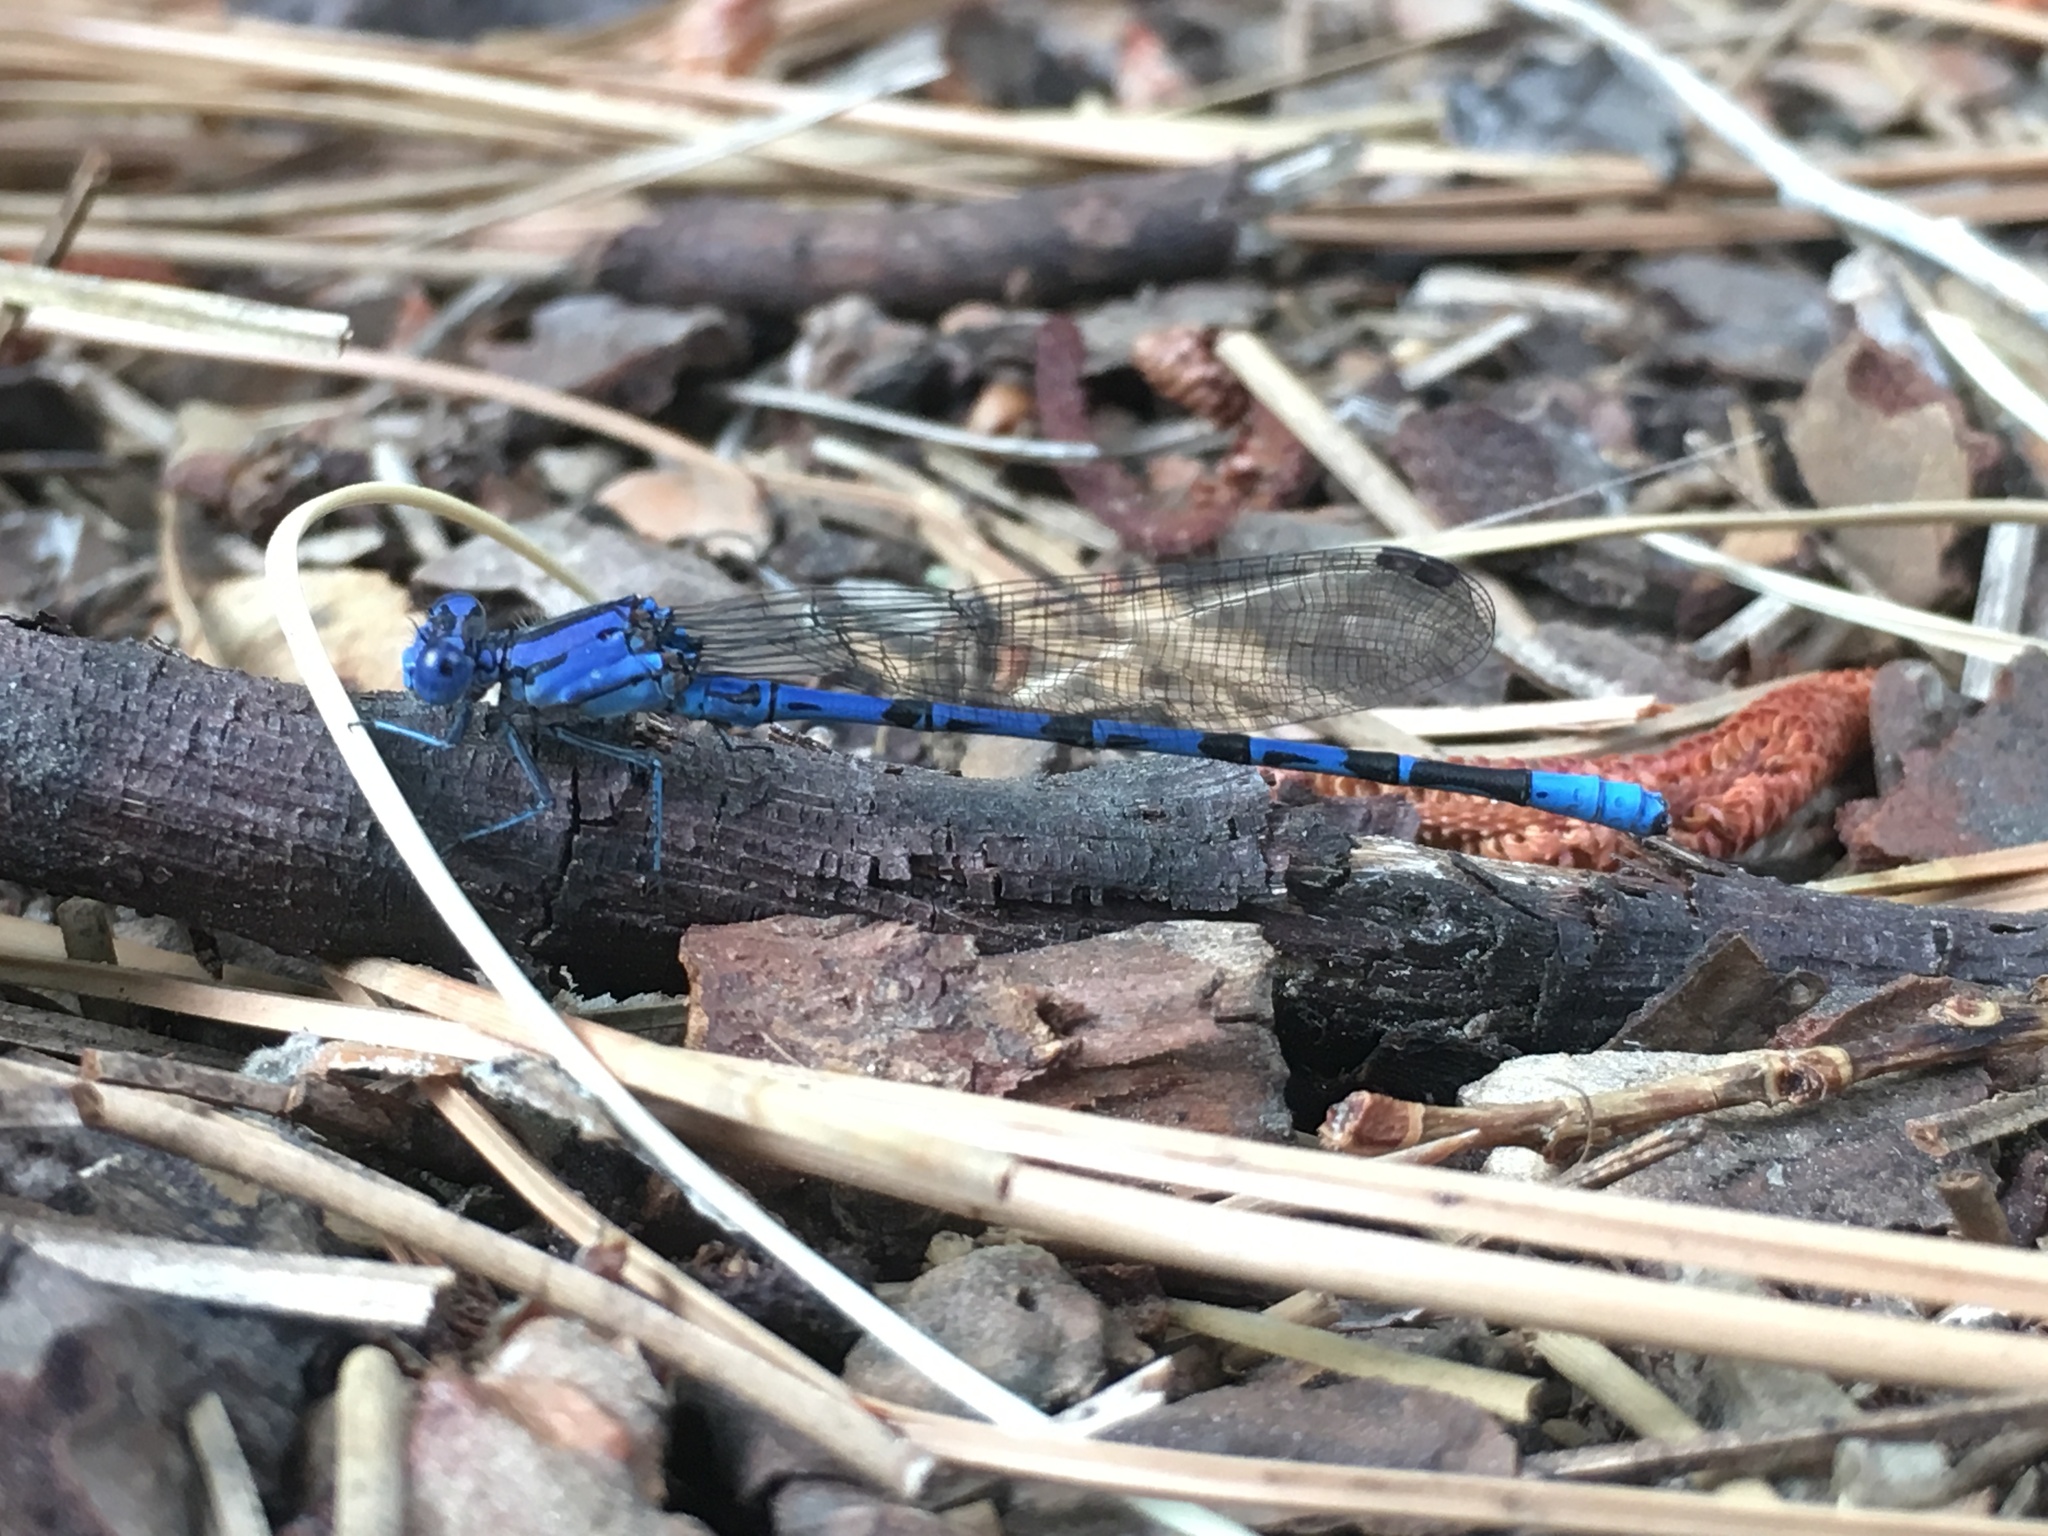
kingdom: Animalia
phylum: Arthropoda
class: Insecta
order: Odonata
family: Coenagrionidae
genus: Argia
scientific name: Argia vivida
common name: Vivid dancer
